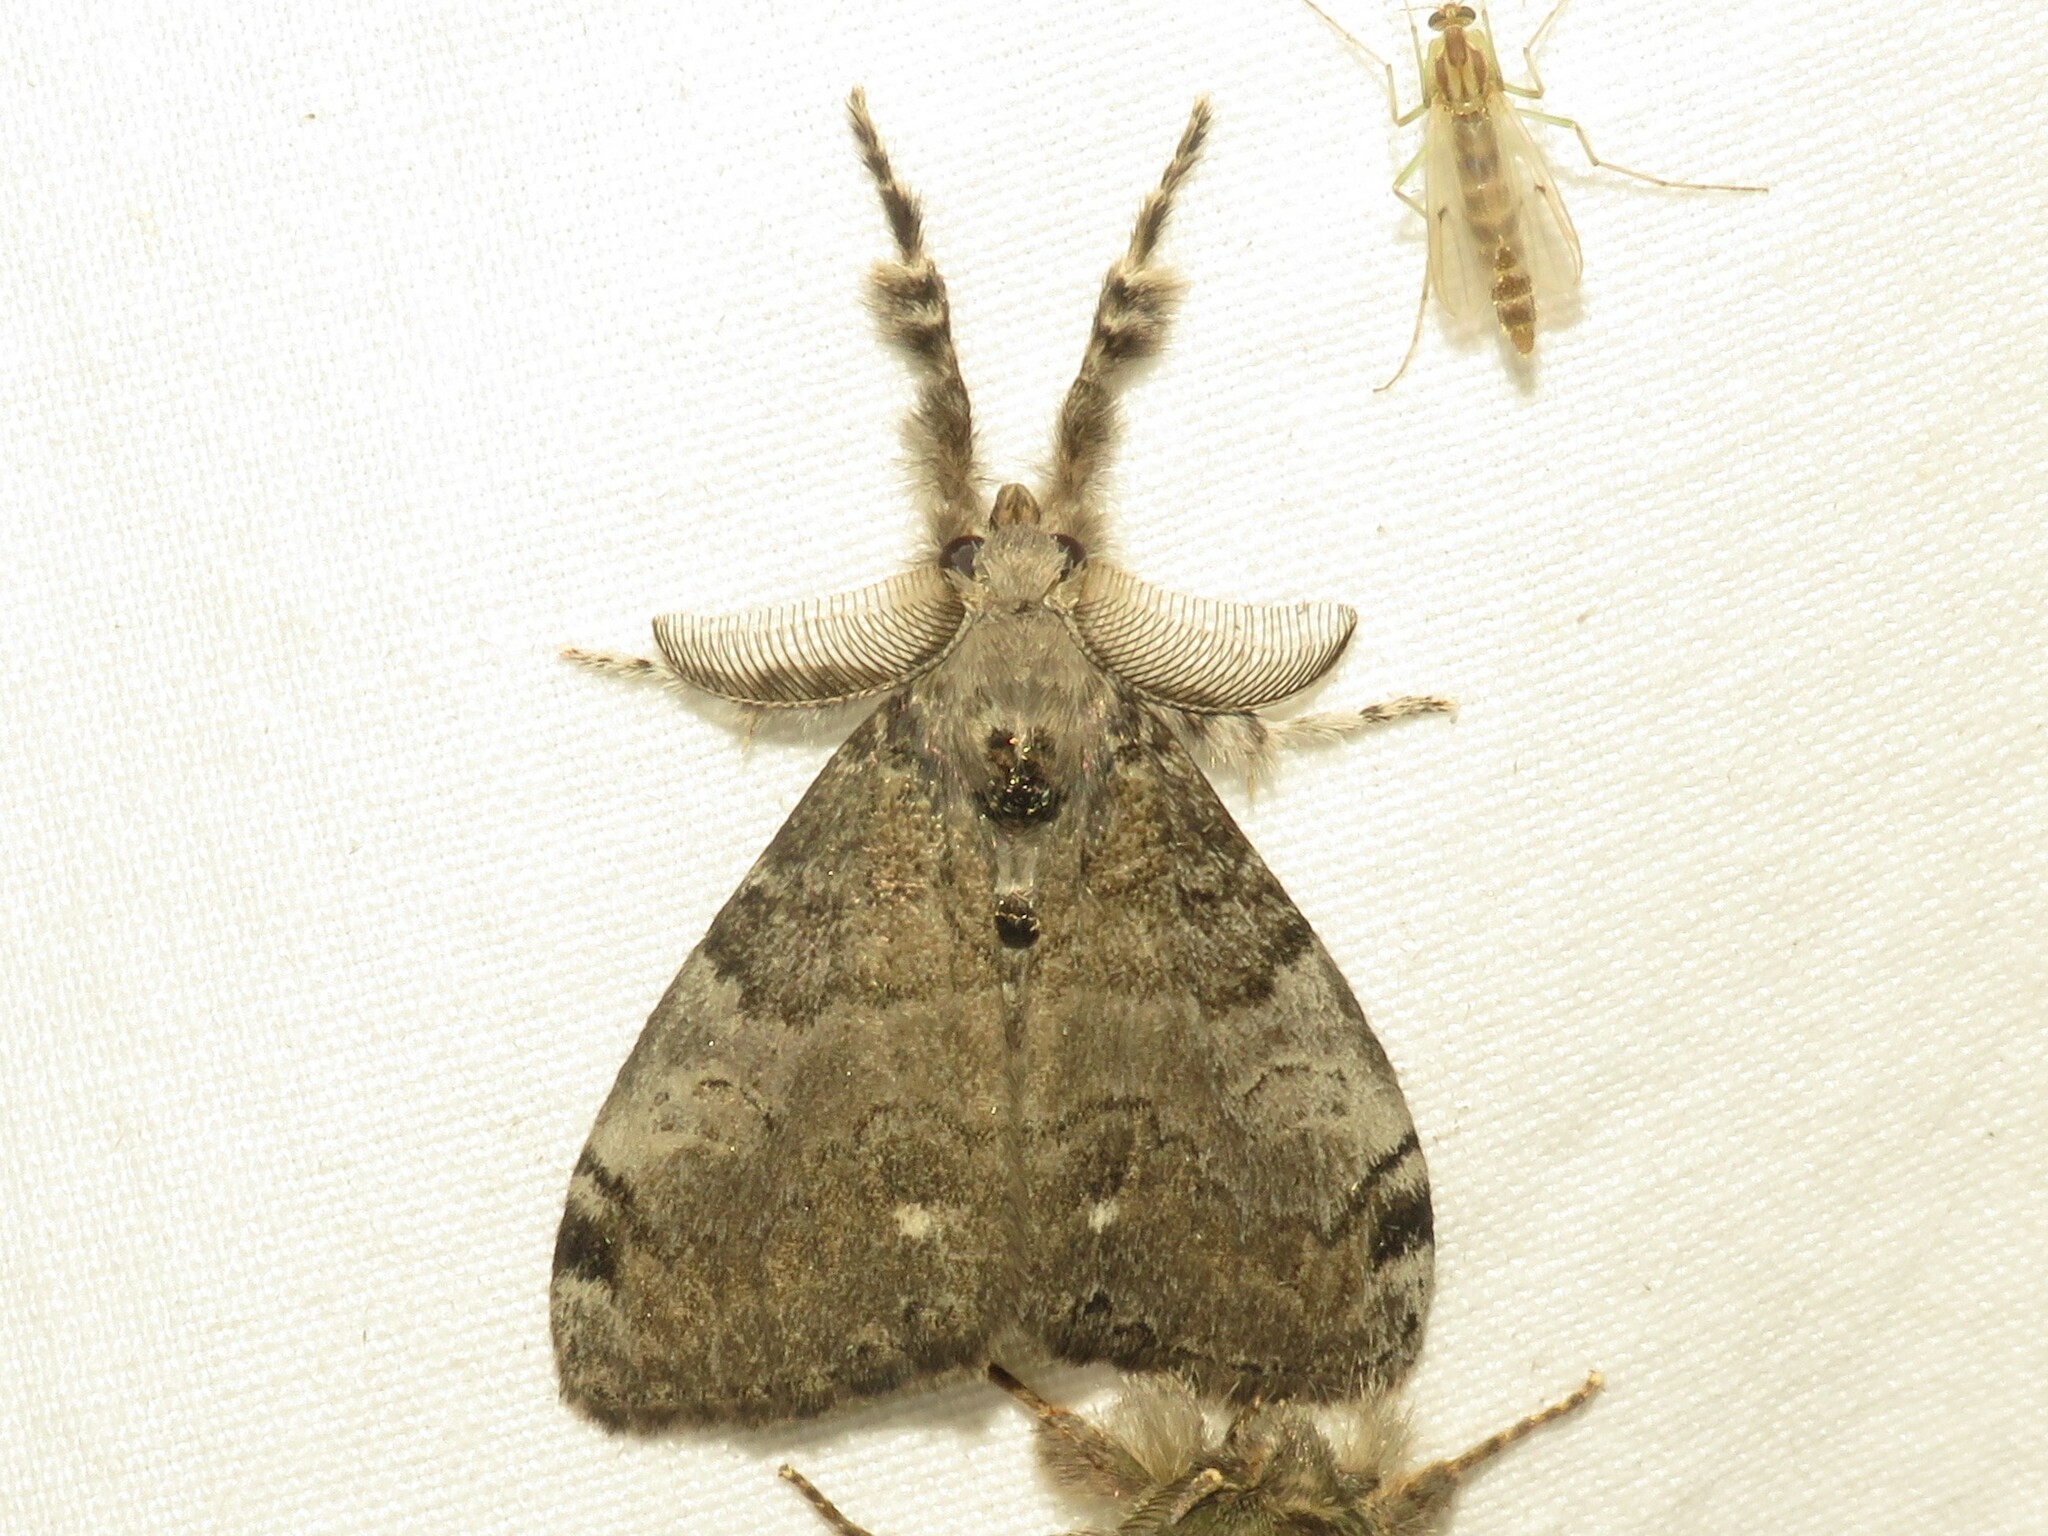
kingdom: Animalia
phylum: Arthropoda
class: Insecta
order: Lepidoptera
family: Erebidae
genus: Orgyia
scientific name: Orgyia leucostigma
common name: White-marked tussock moth
